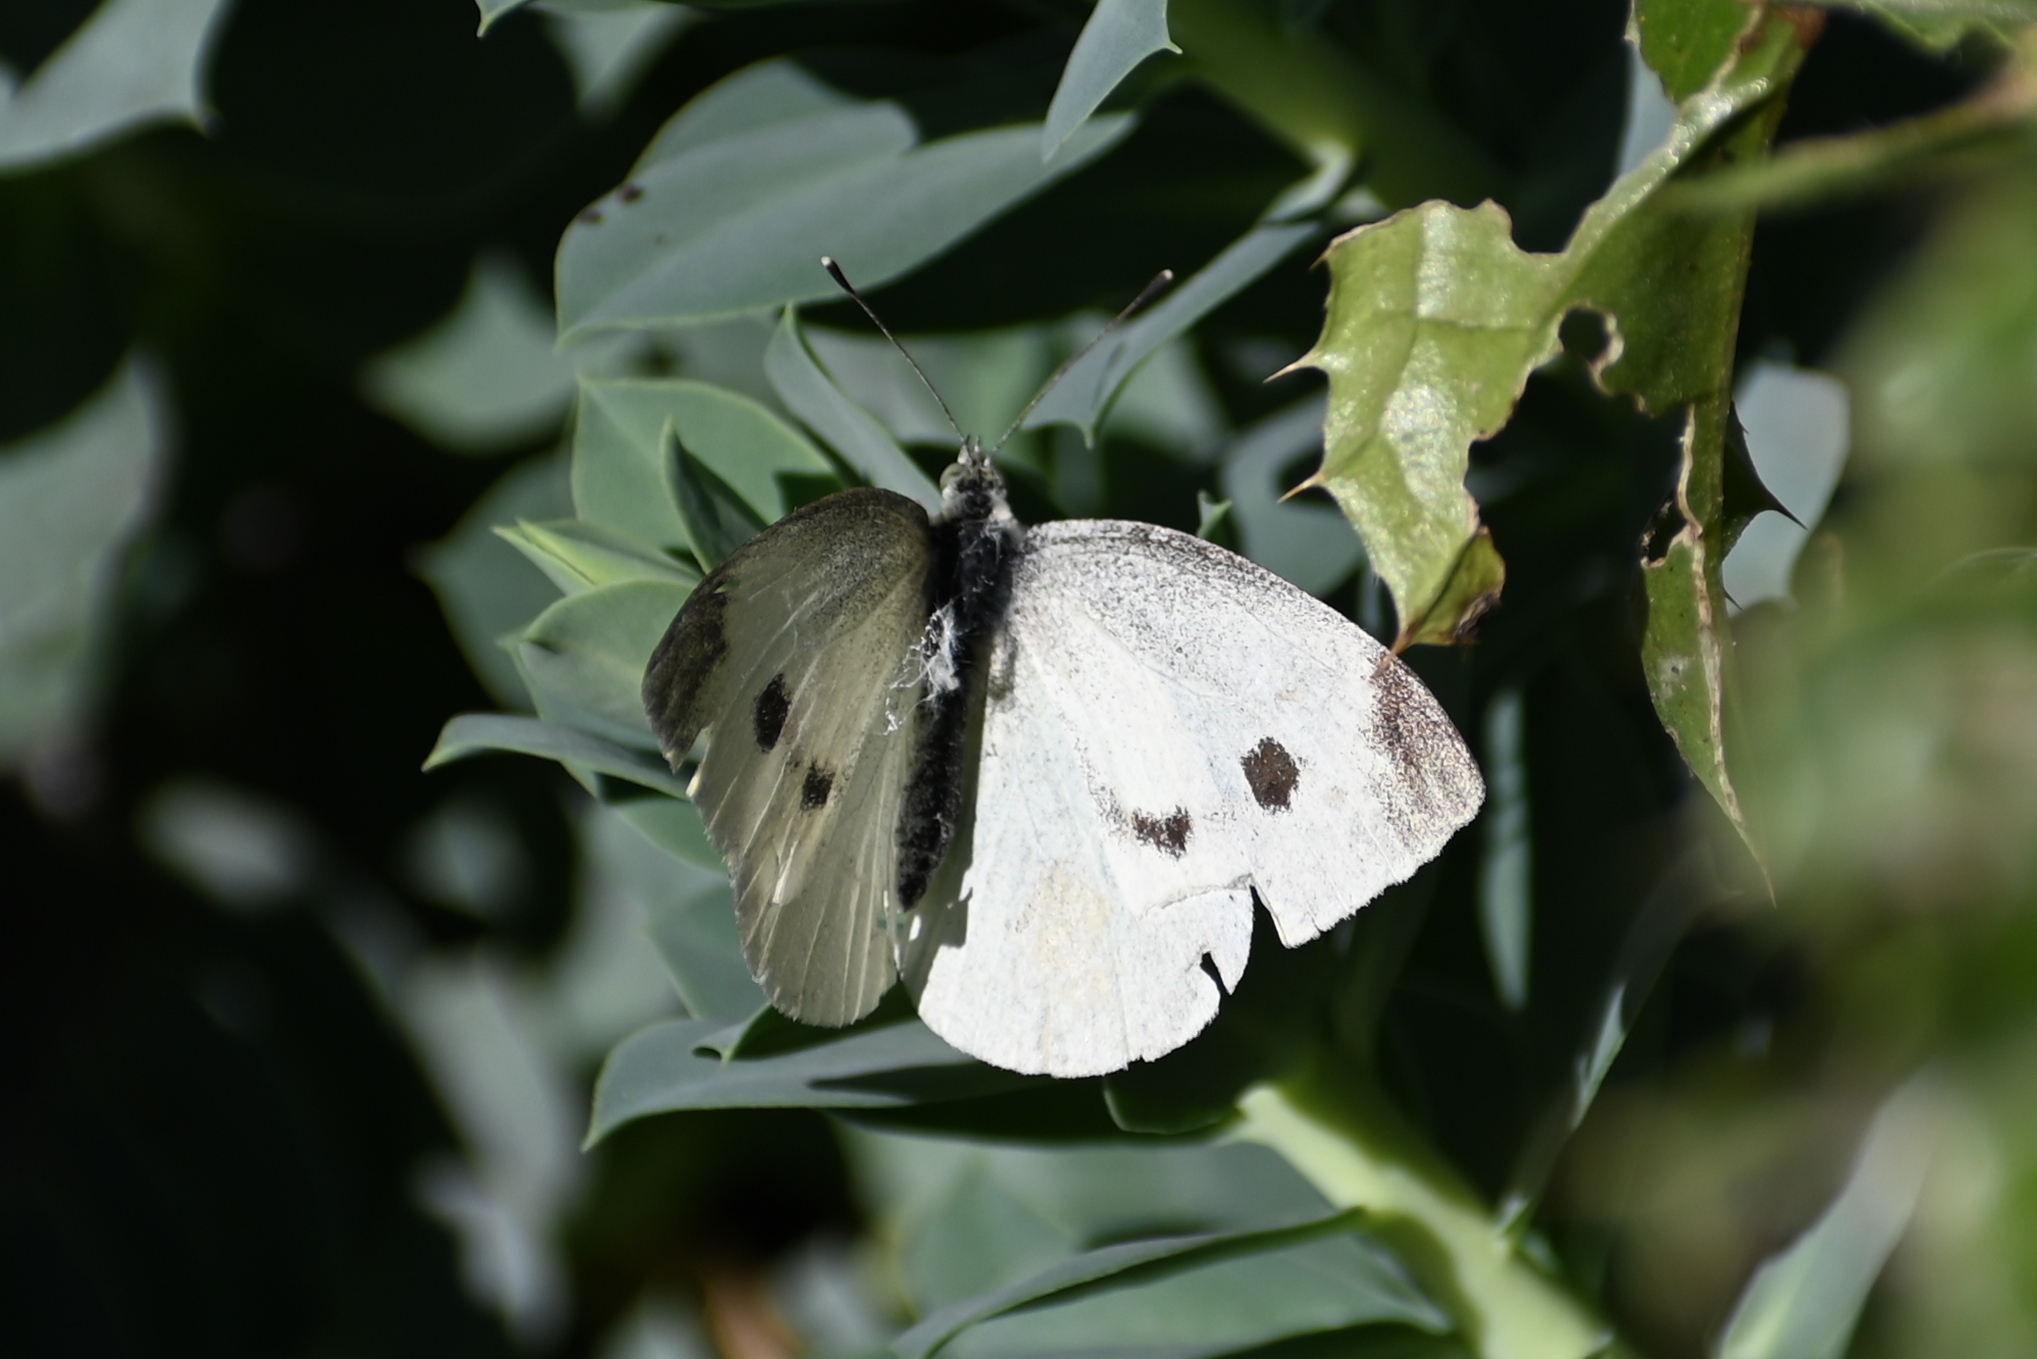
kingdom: Animalia
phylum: Arthropoda
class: Insecta
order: Lepidoptera
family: Pieridae
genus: Pieris
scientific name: Pieris rapae
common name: Small white
